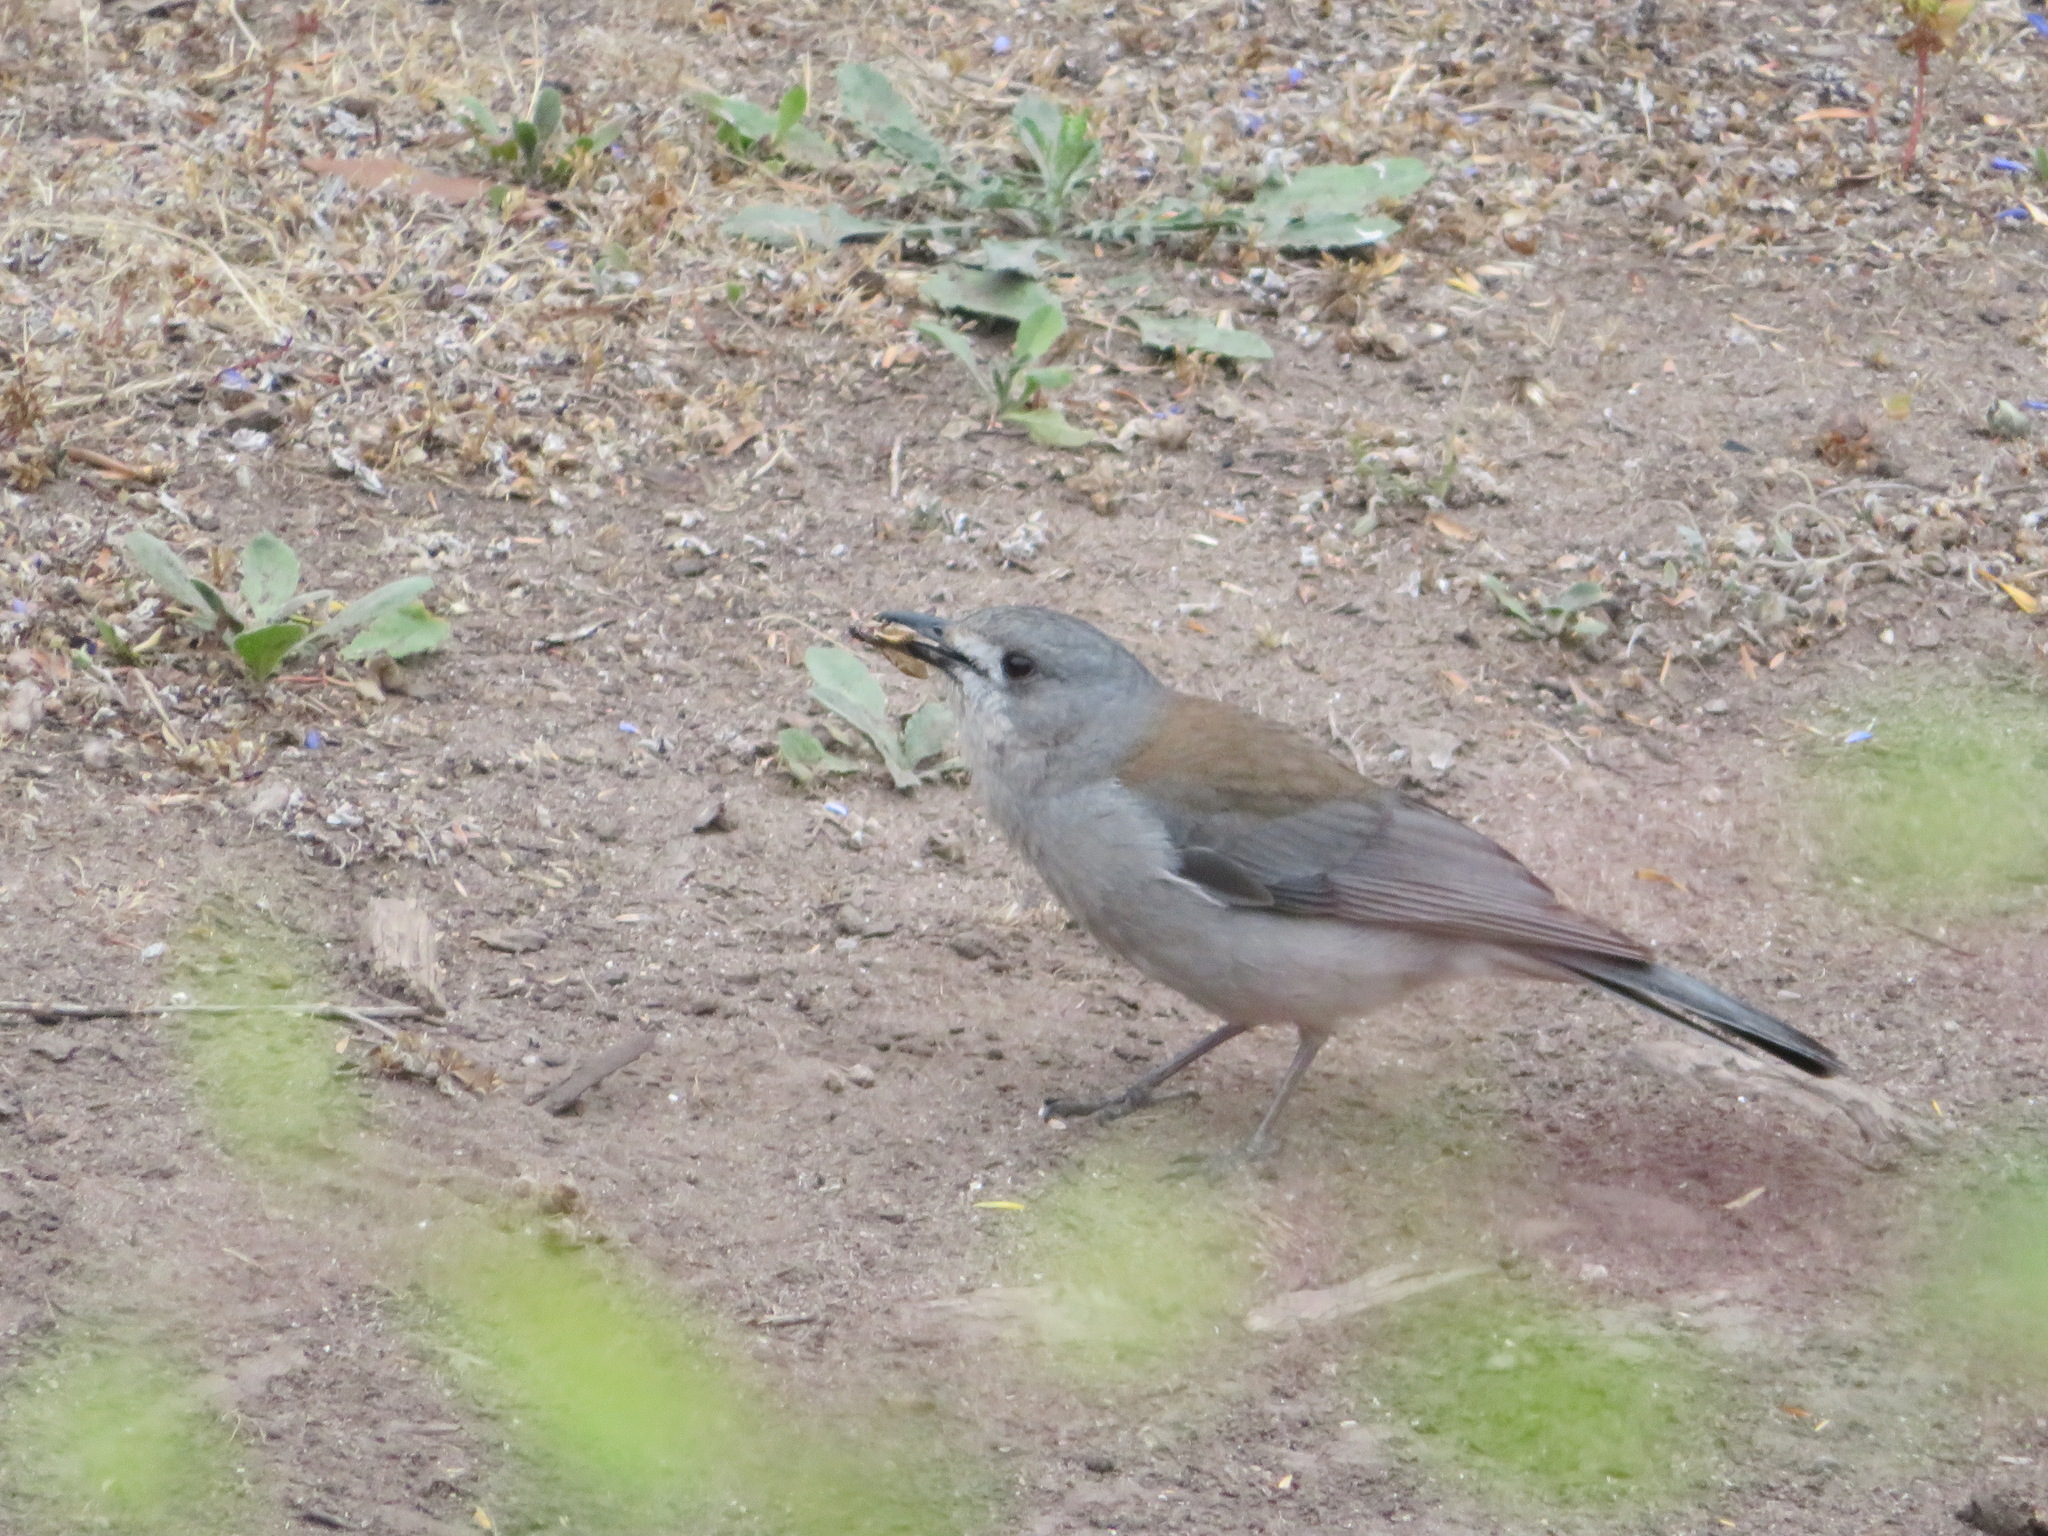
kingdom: Animalia
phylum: Chordata
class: Aves
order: Passeriformes
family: Pachycephalidae
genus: Colluricincla
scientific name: Colluricincla harmonica
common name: Grey shrikethrush
